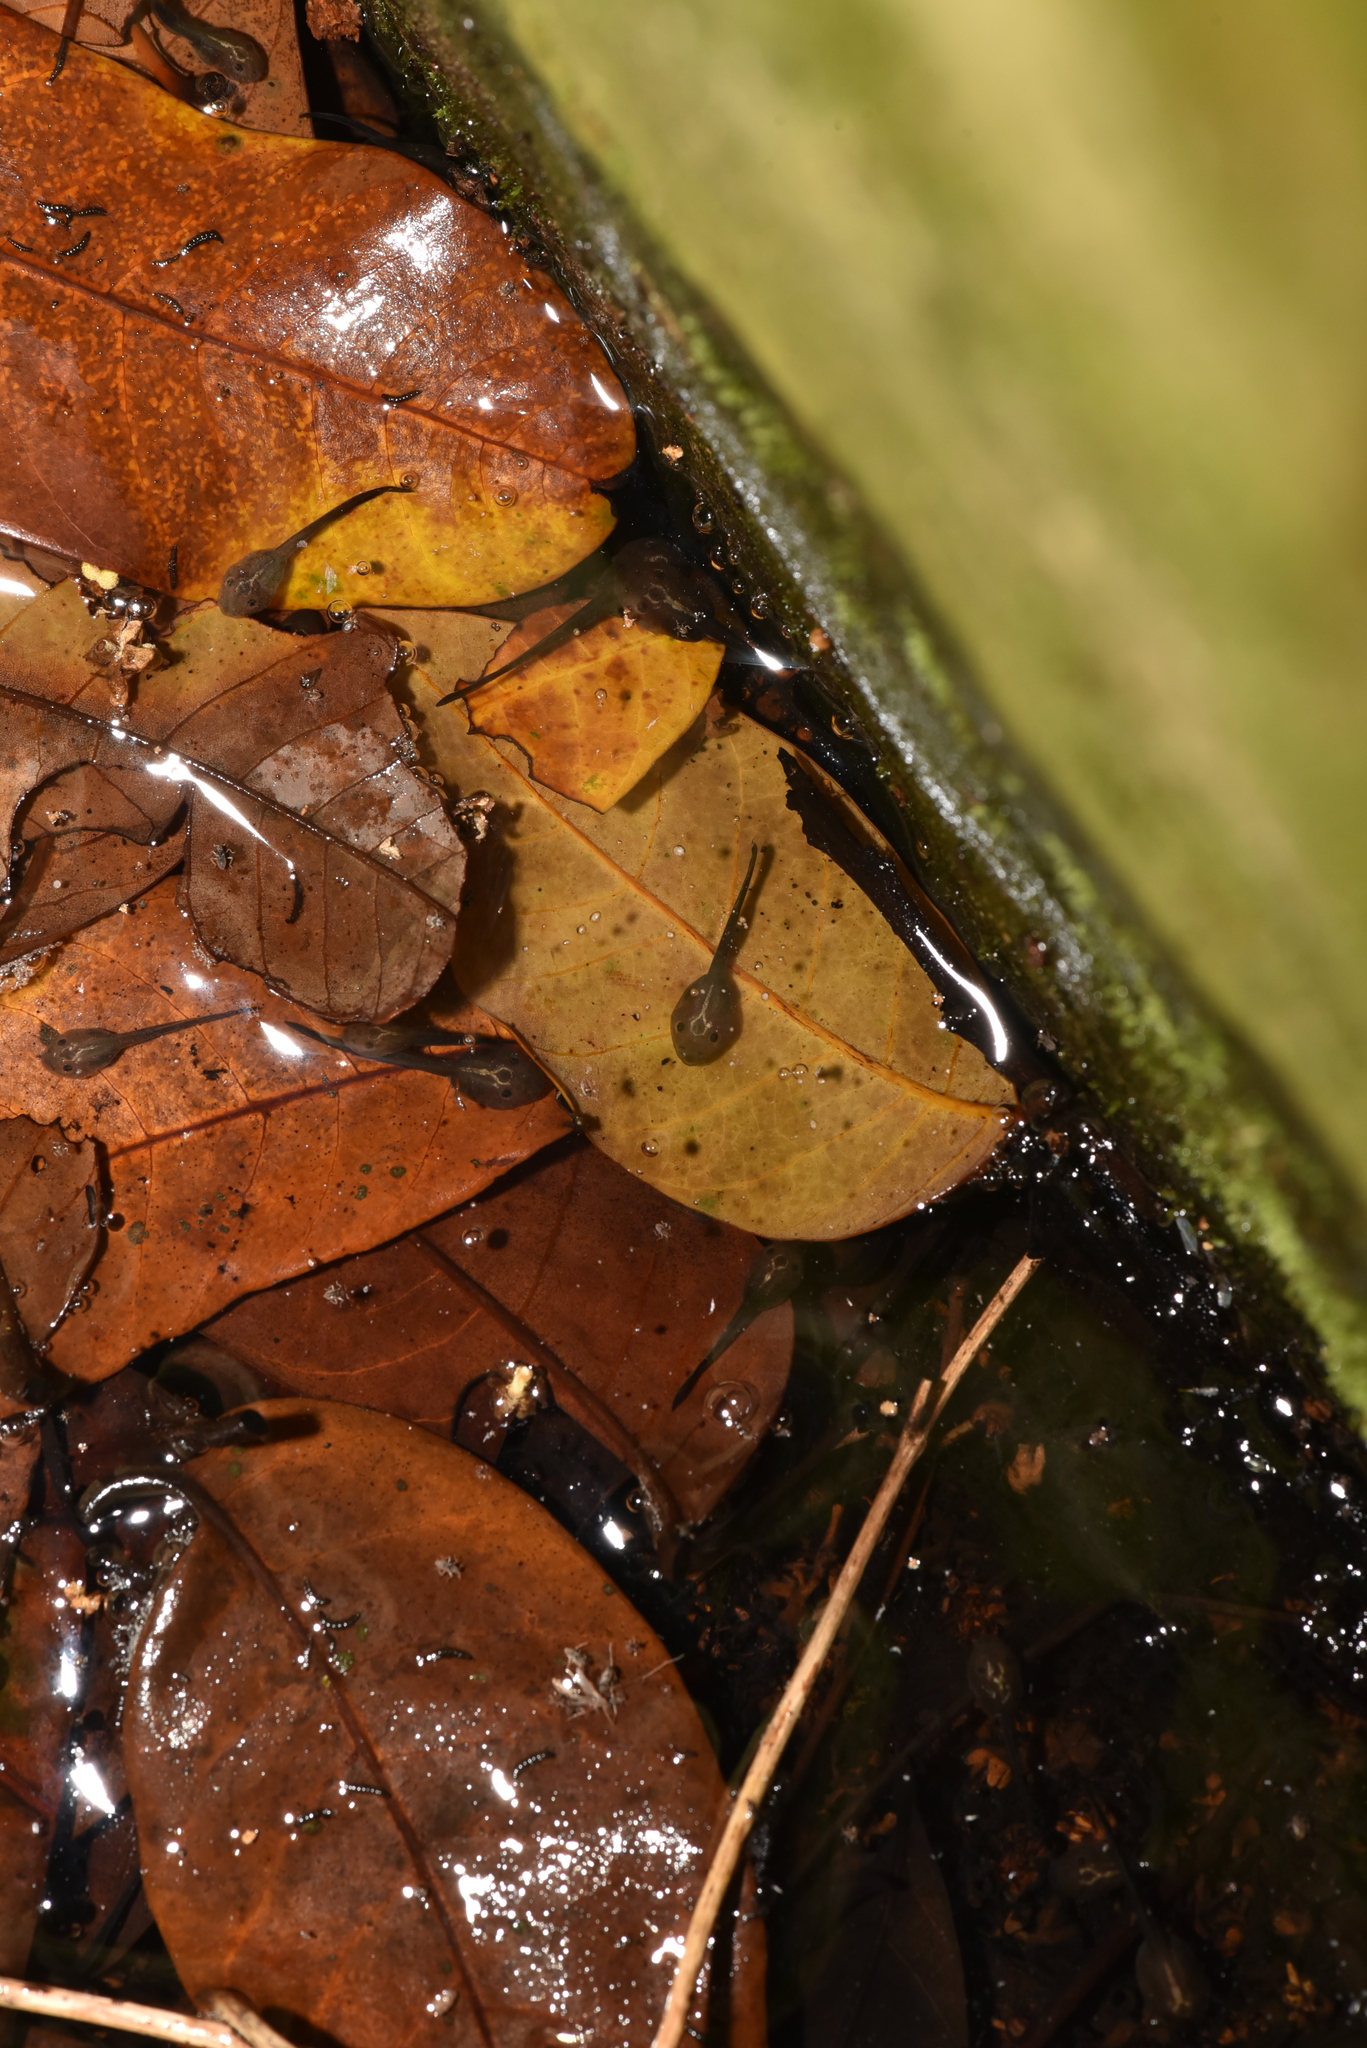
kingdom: Animalia
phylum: Chordata
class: Amphibia
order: Anura
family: Rhacophoridae
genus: Zhangixalus
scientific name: Zhangixalus moltrechti
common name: Moltrecht's treefrog
